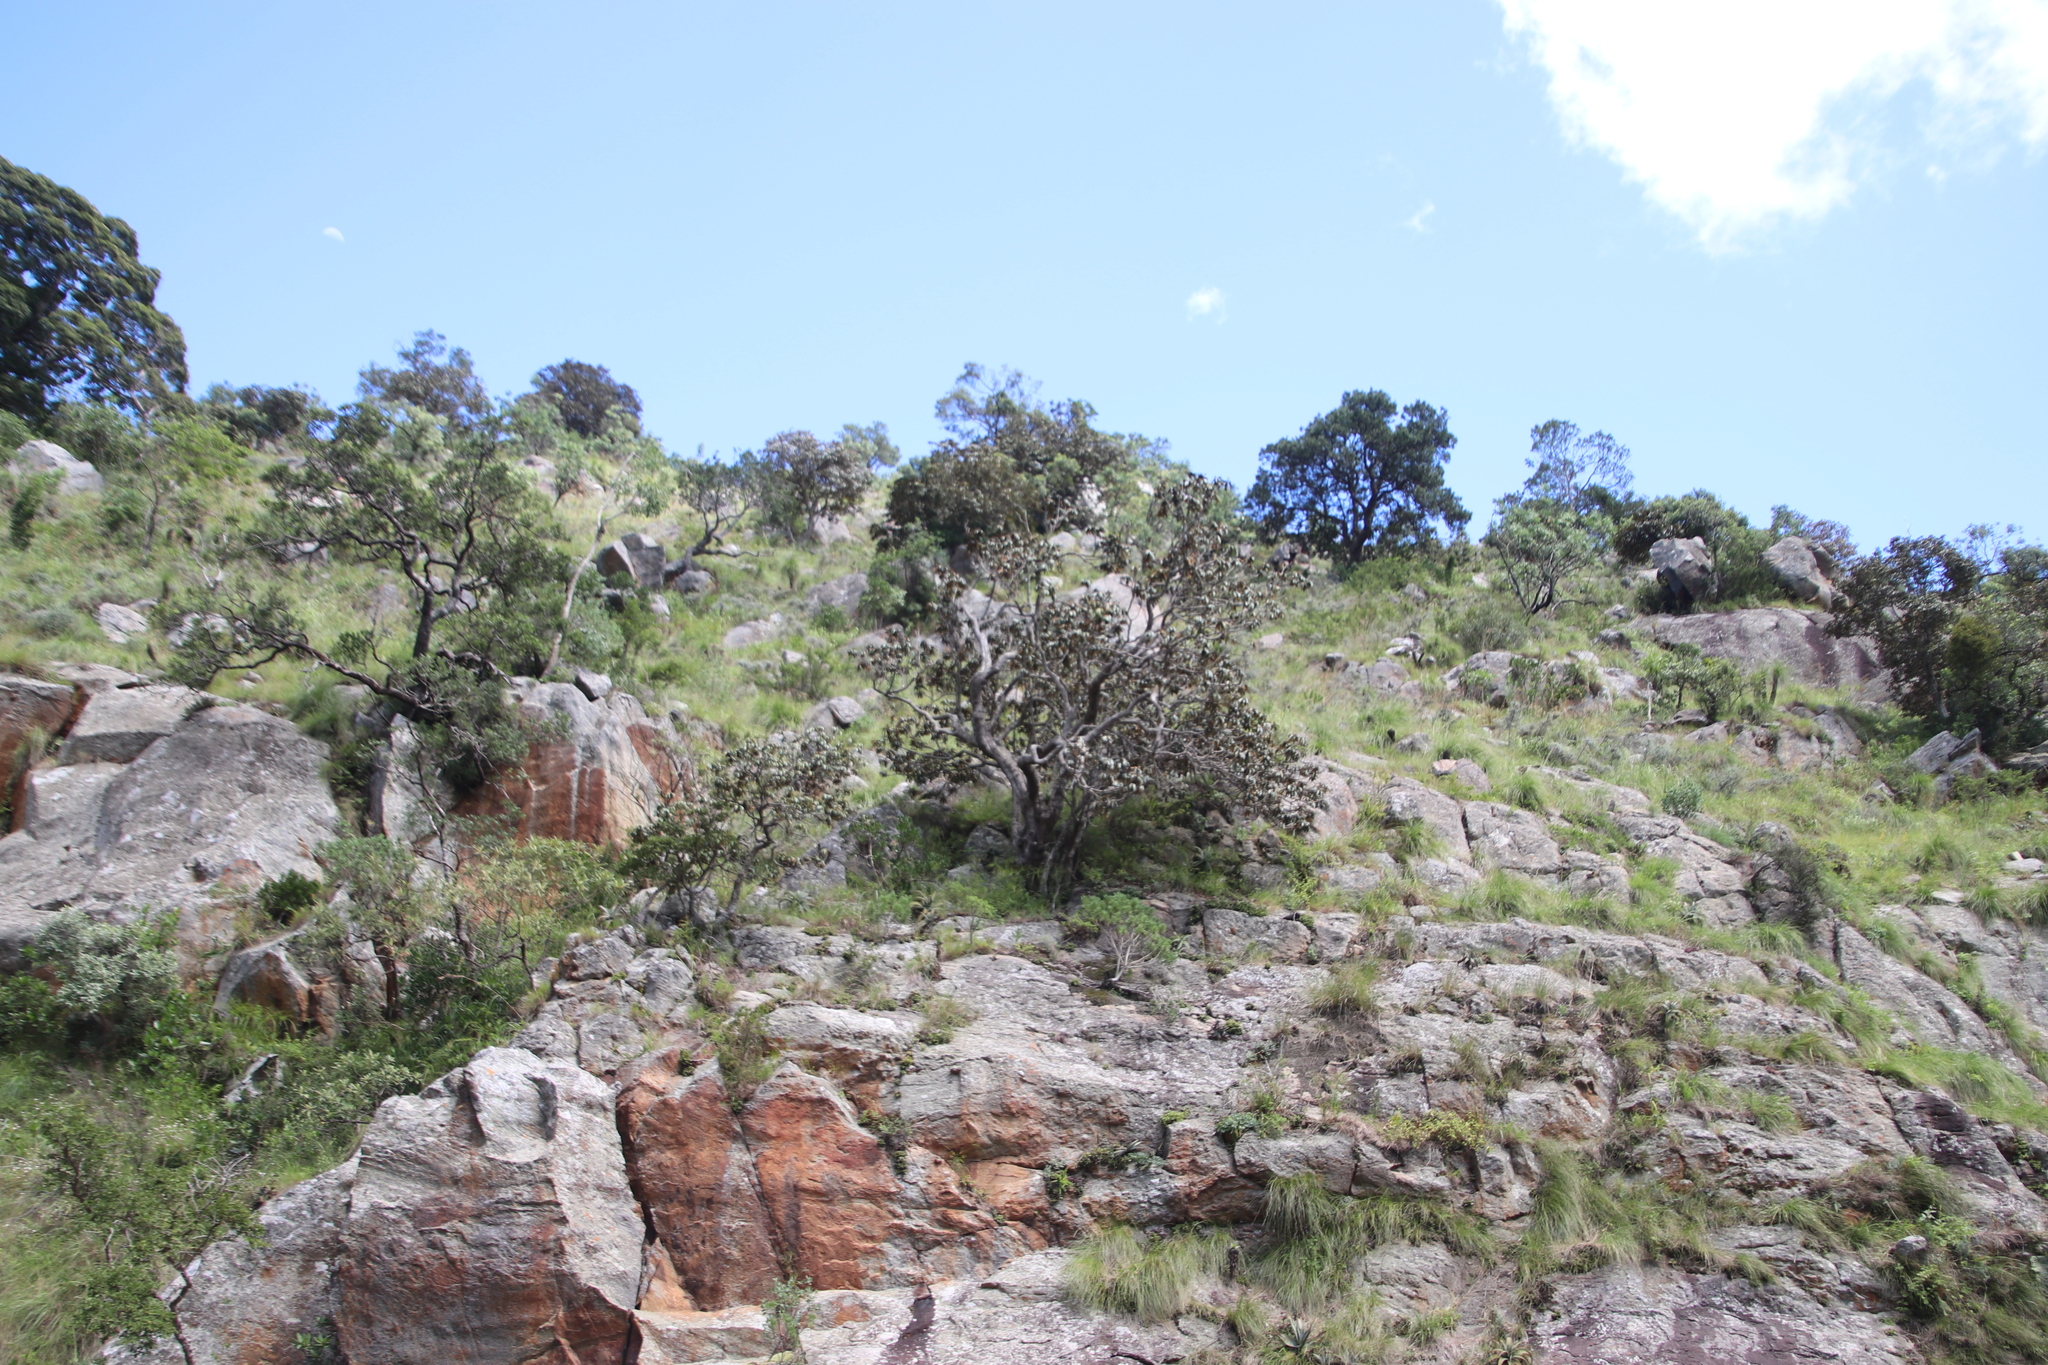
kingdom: Plantae
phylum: Tracheophyta
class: Magnoliopsida
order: Ericales
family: Sapotaceae
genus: Englerophytum
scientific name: Englerophytum magalismontanum
